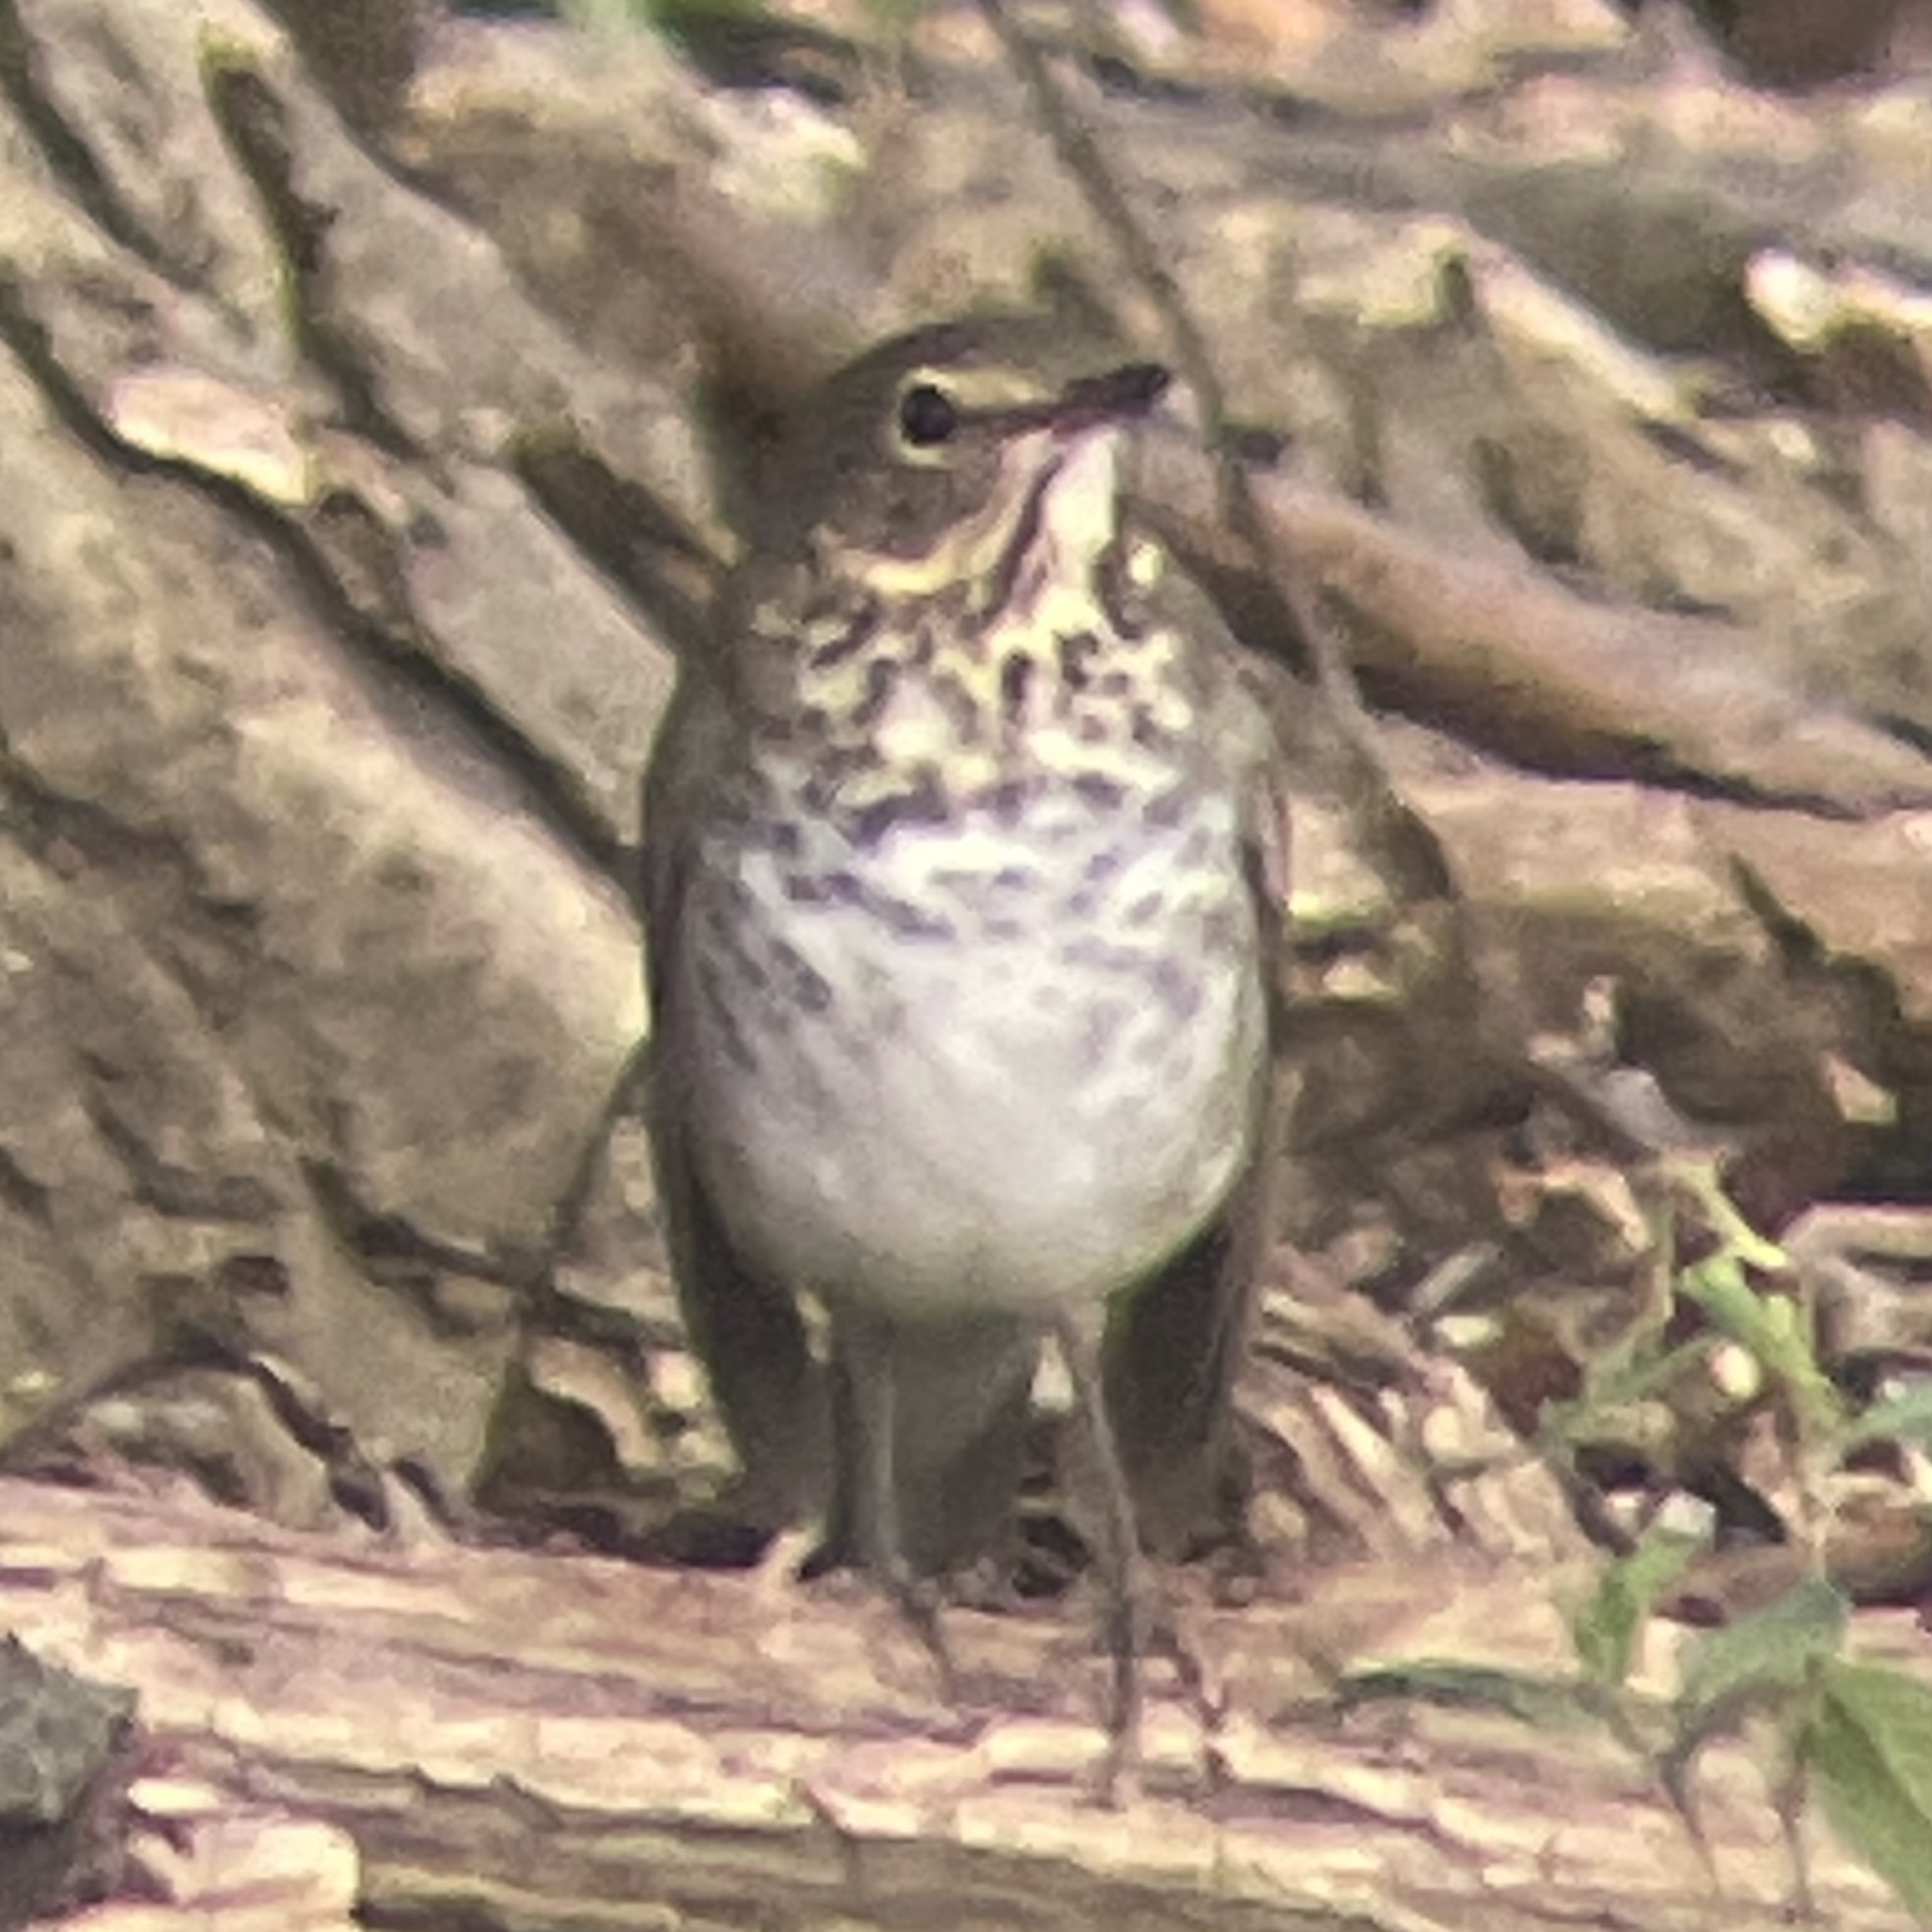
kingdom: Animalia
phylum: Chordata
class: Aves
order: Passeriformes
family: Turdidae
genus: Catharus
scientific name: Catharus ustulatus
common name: Swainson's thrush
